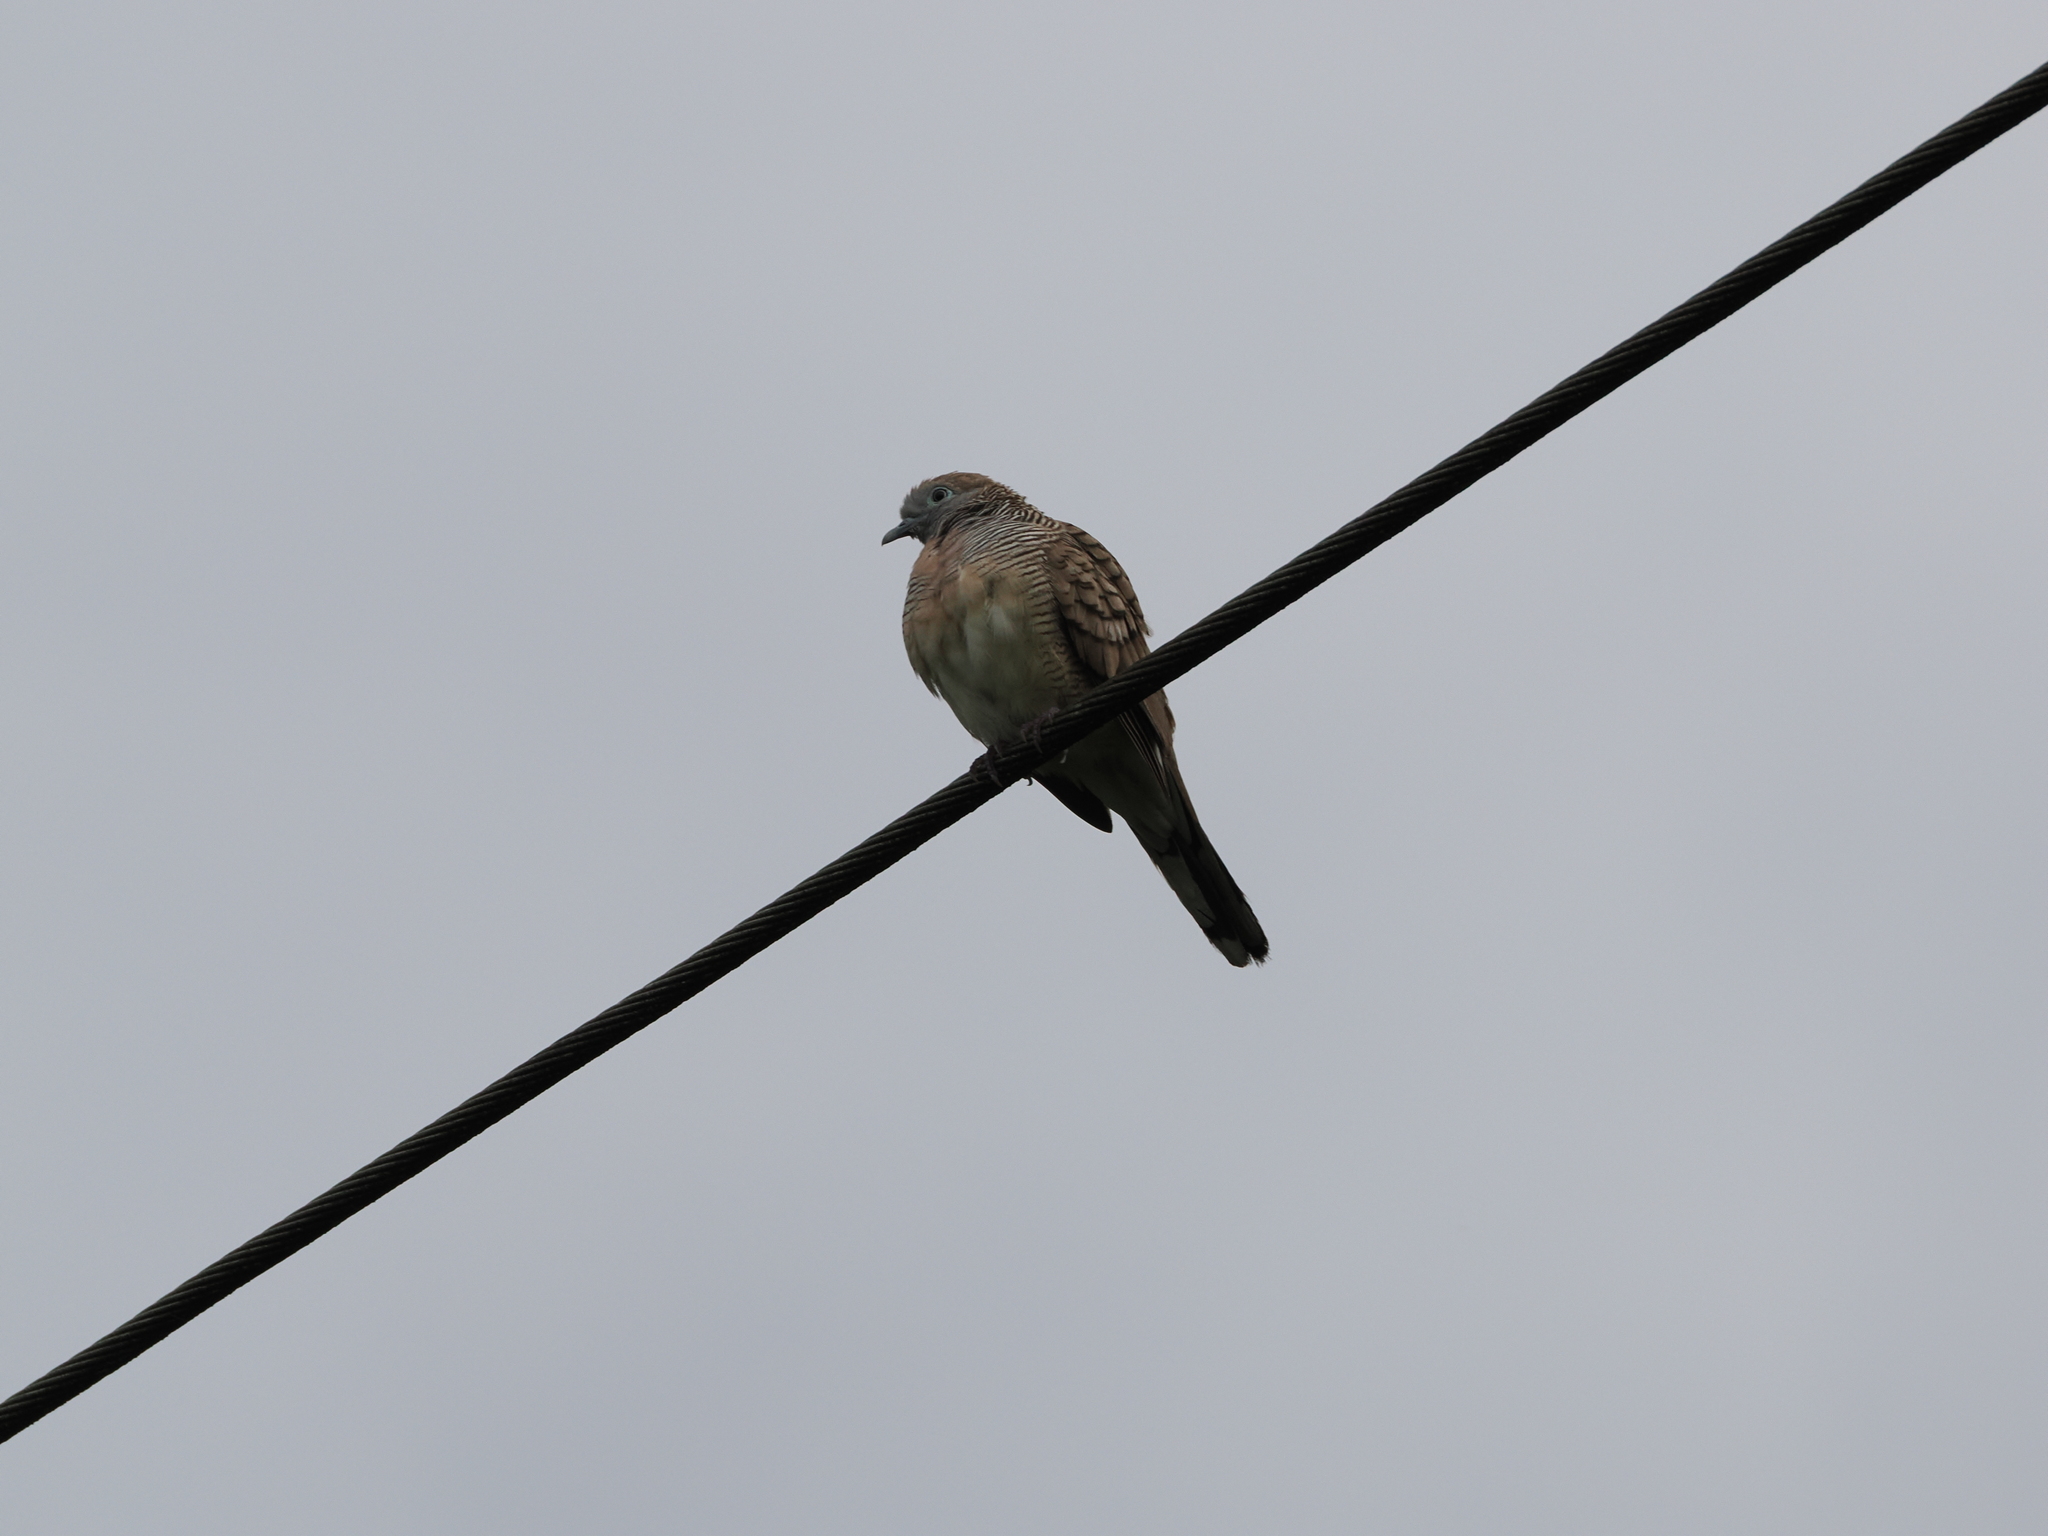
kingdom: Animalia
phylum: Chordata
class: Aves
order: Columbiformes
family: Columbidae
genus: Geopelia
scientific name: Geopelia striata
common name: Zebra dove
